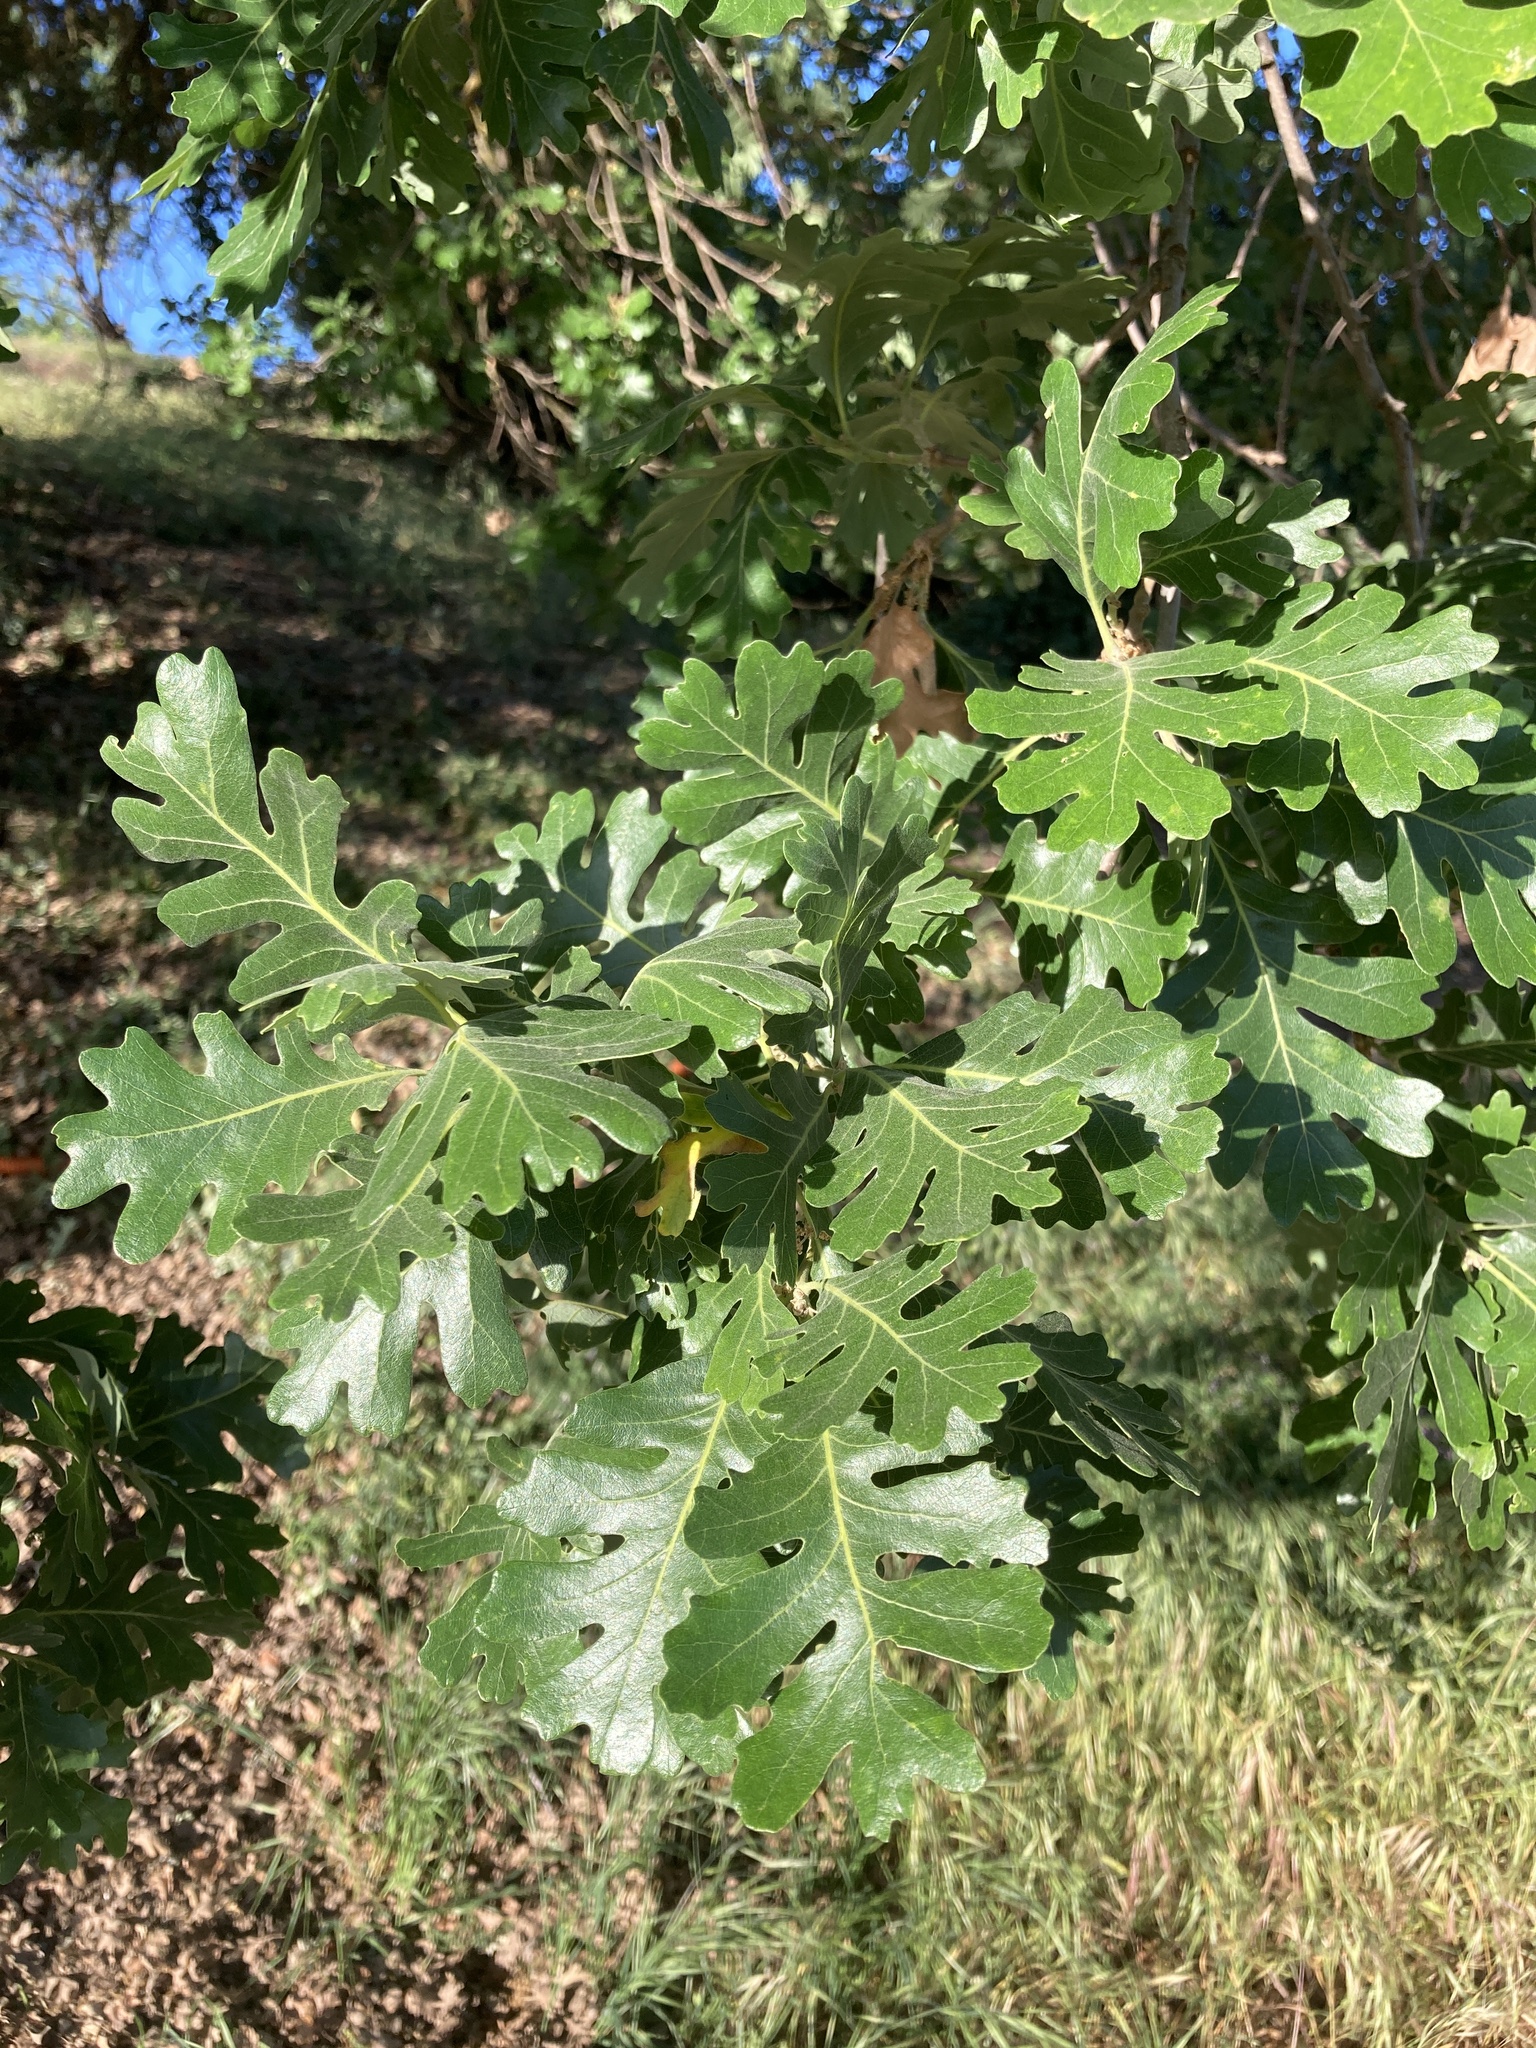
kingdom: Plantae
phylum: Tracheophyta
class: Magnoliopsida
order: Fagales
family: Fagaceae
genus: Quercus
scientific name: Quercus lobata
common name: Valley oak
